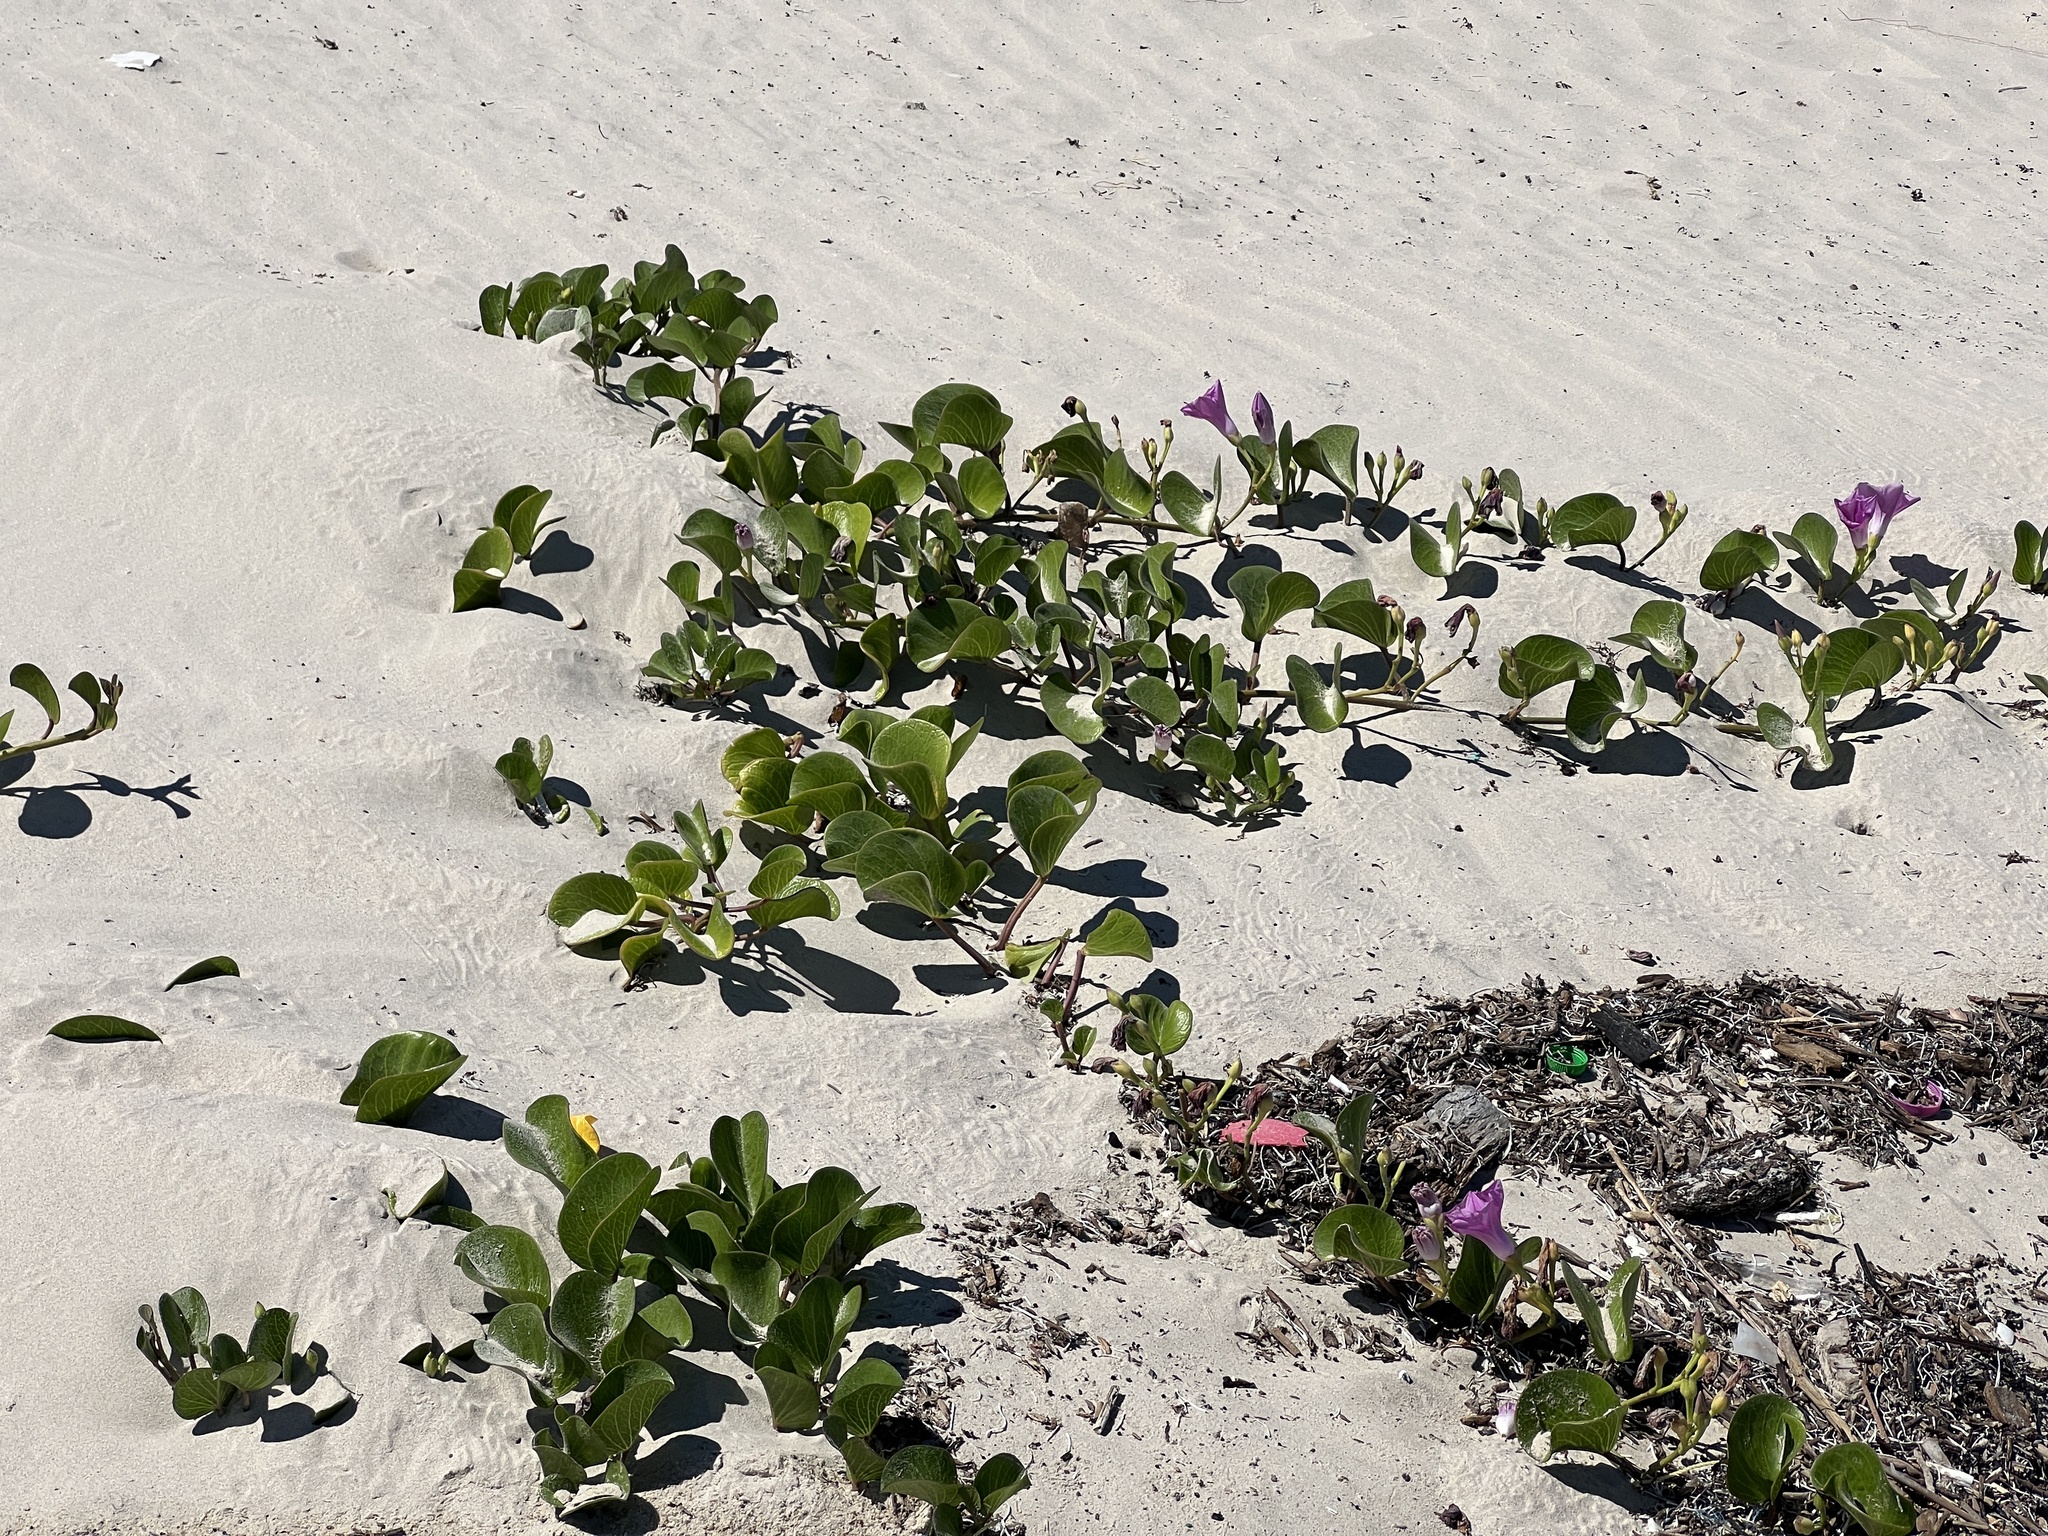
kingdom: Plantae
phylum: Tracheophyta
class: Magnoliopsida
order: Solanales
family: Convolvulaceae
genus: Ipomoea
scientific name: Ipomoea pes-caprae
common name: Beach morning glory
